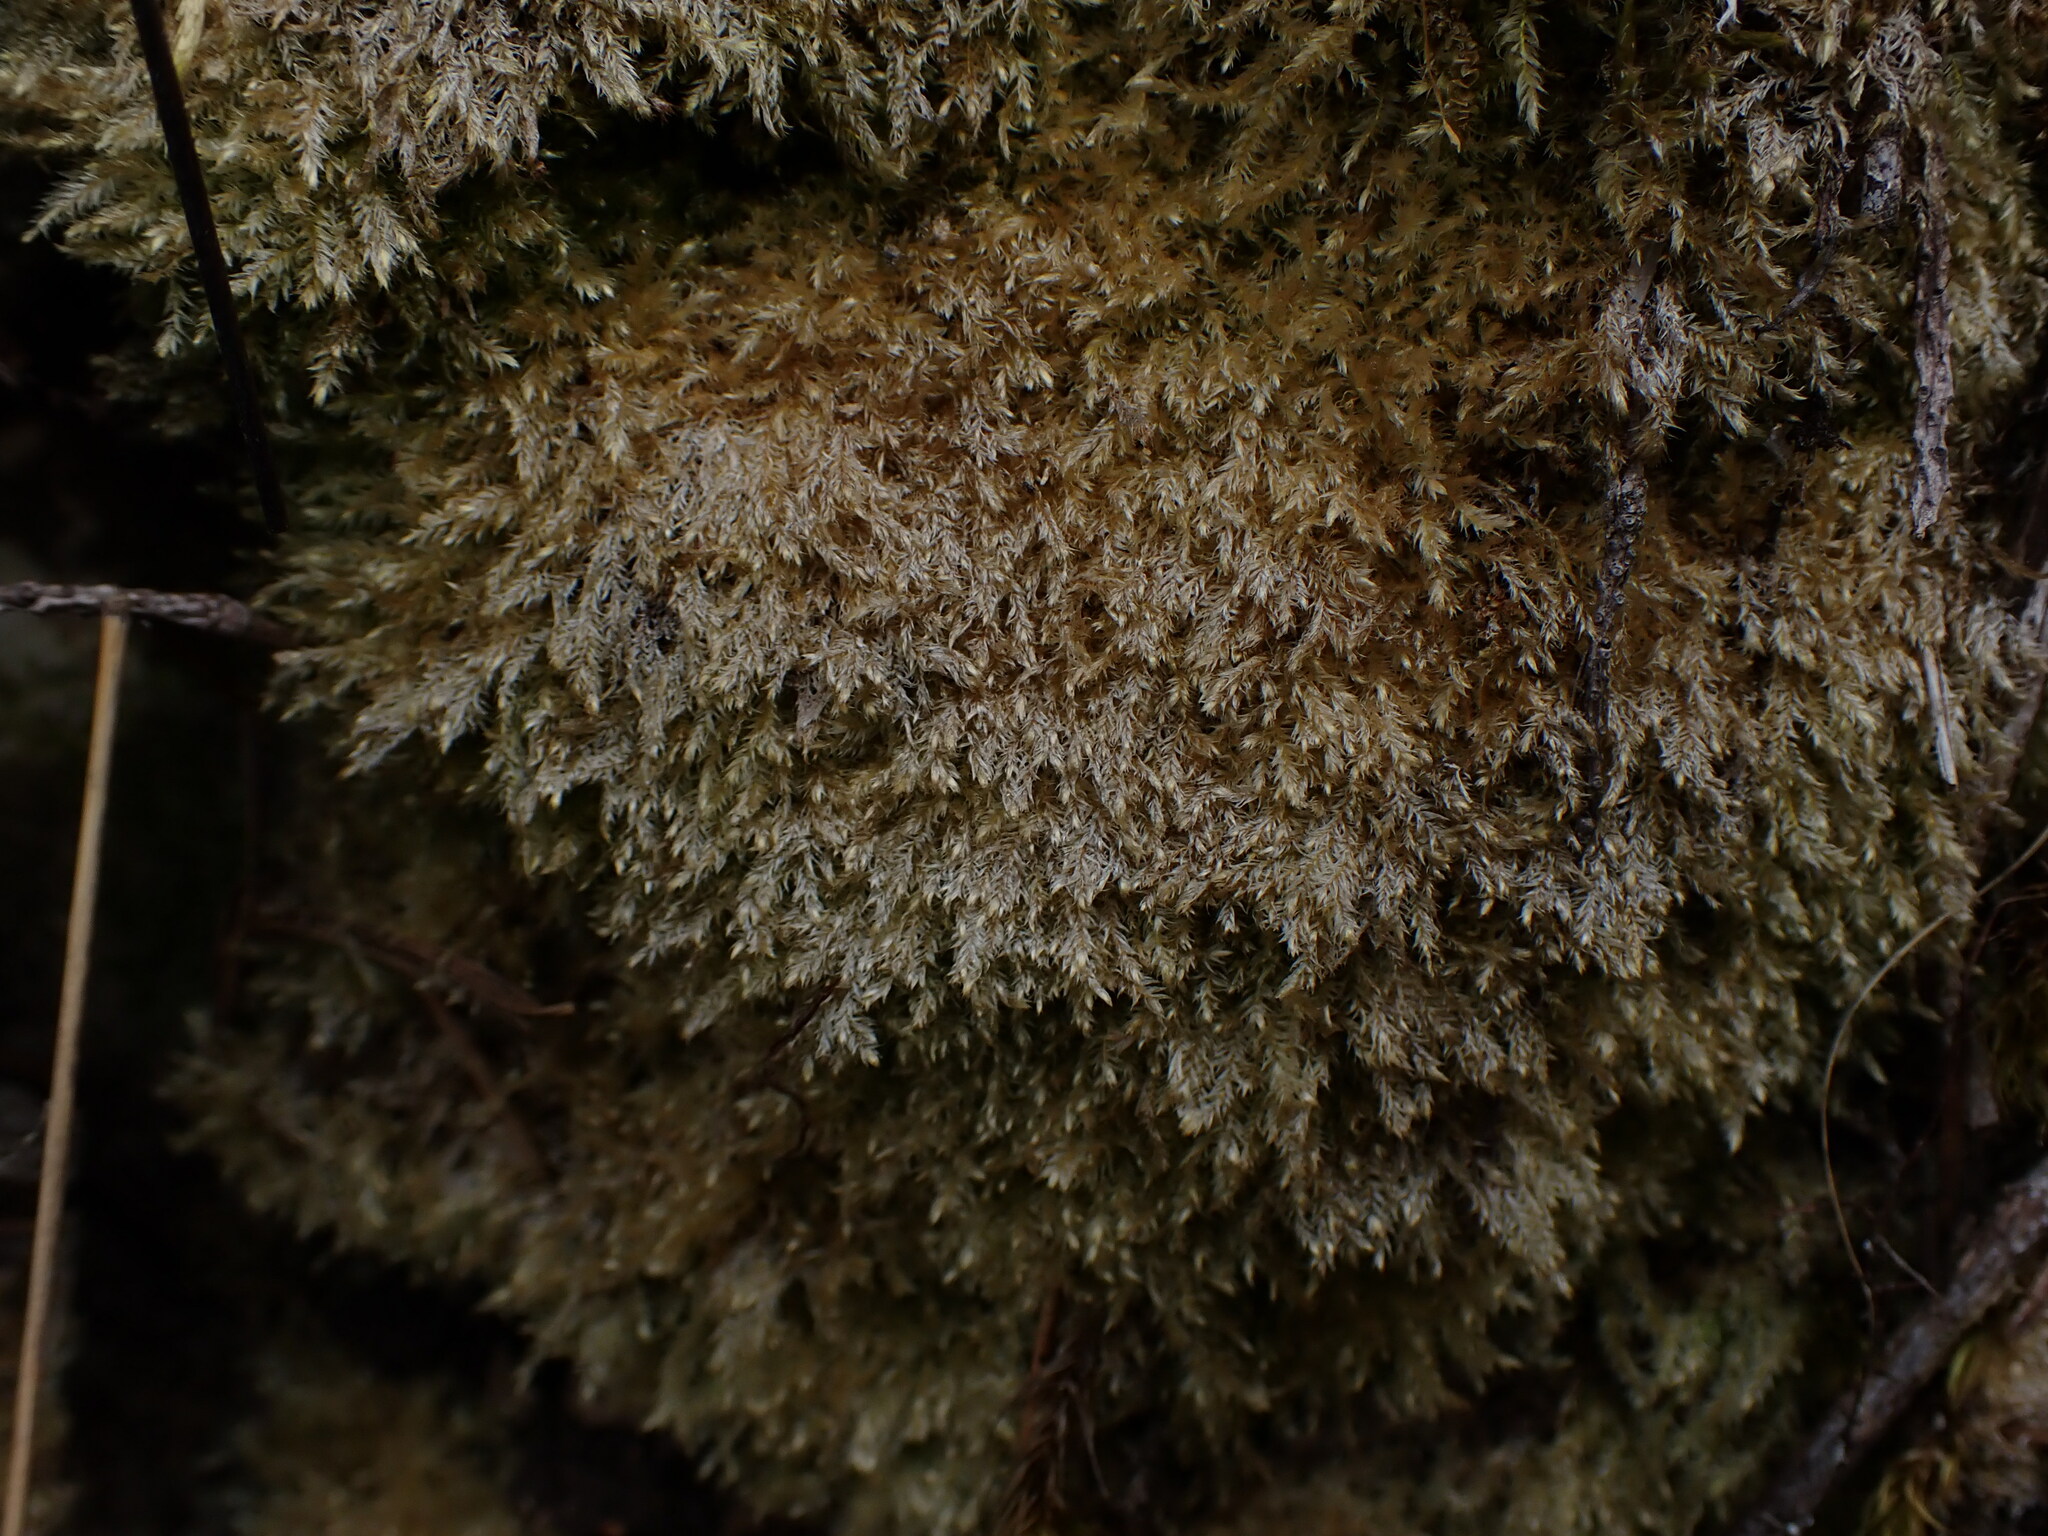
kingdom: Plantae
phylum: Bryophyta
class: Bryopsida
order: Hypnales
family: Plagiotheciaceae
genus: Pseudotaxiphyllum
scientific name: Pseudotaxiphyllum elegans
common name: Elegant silk moss
